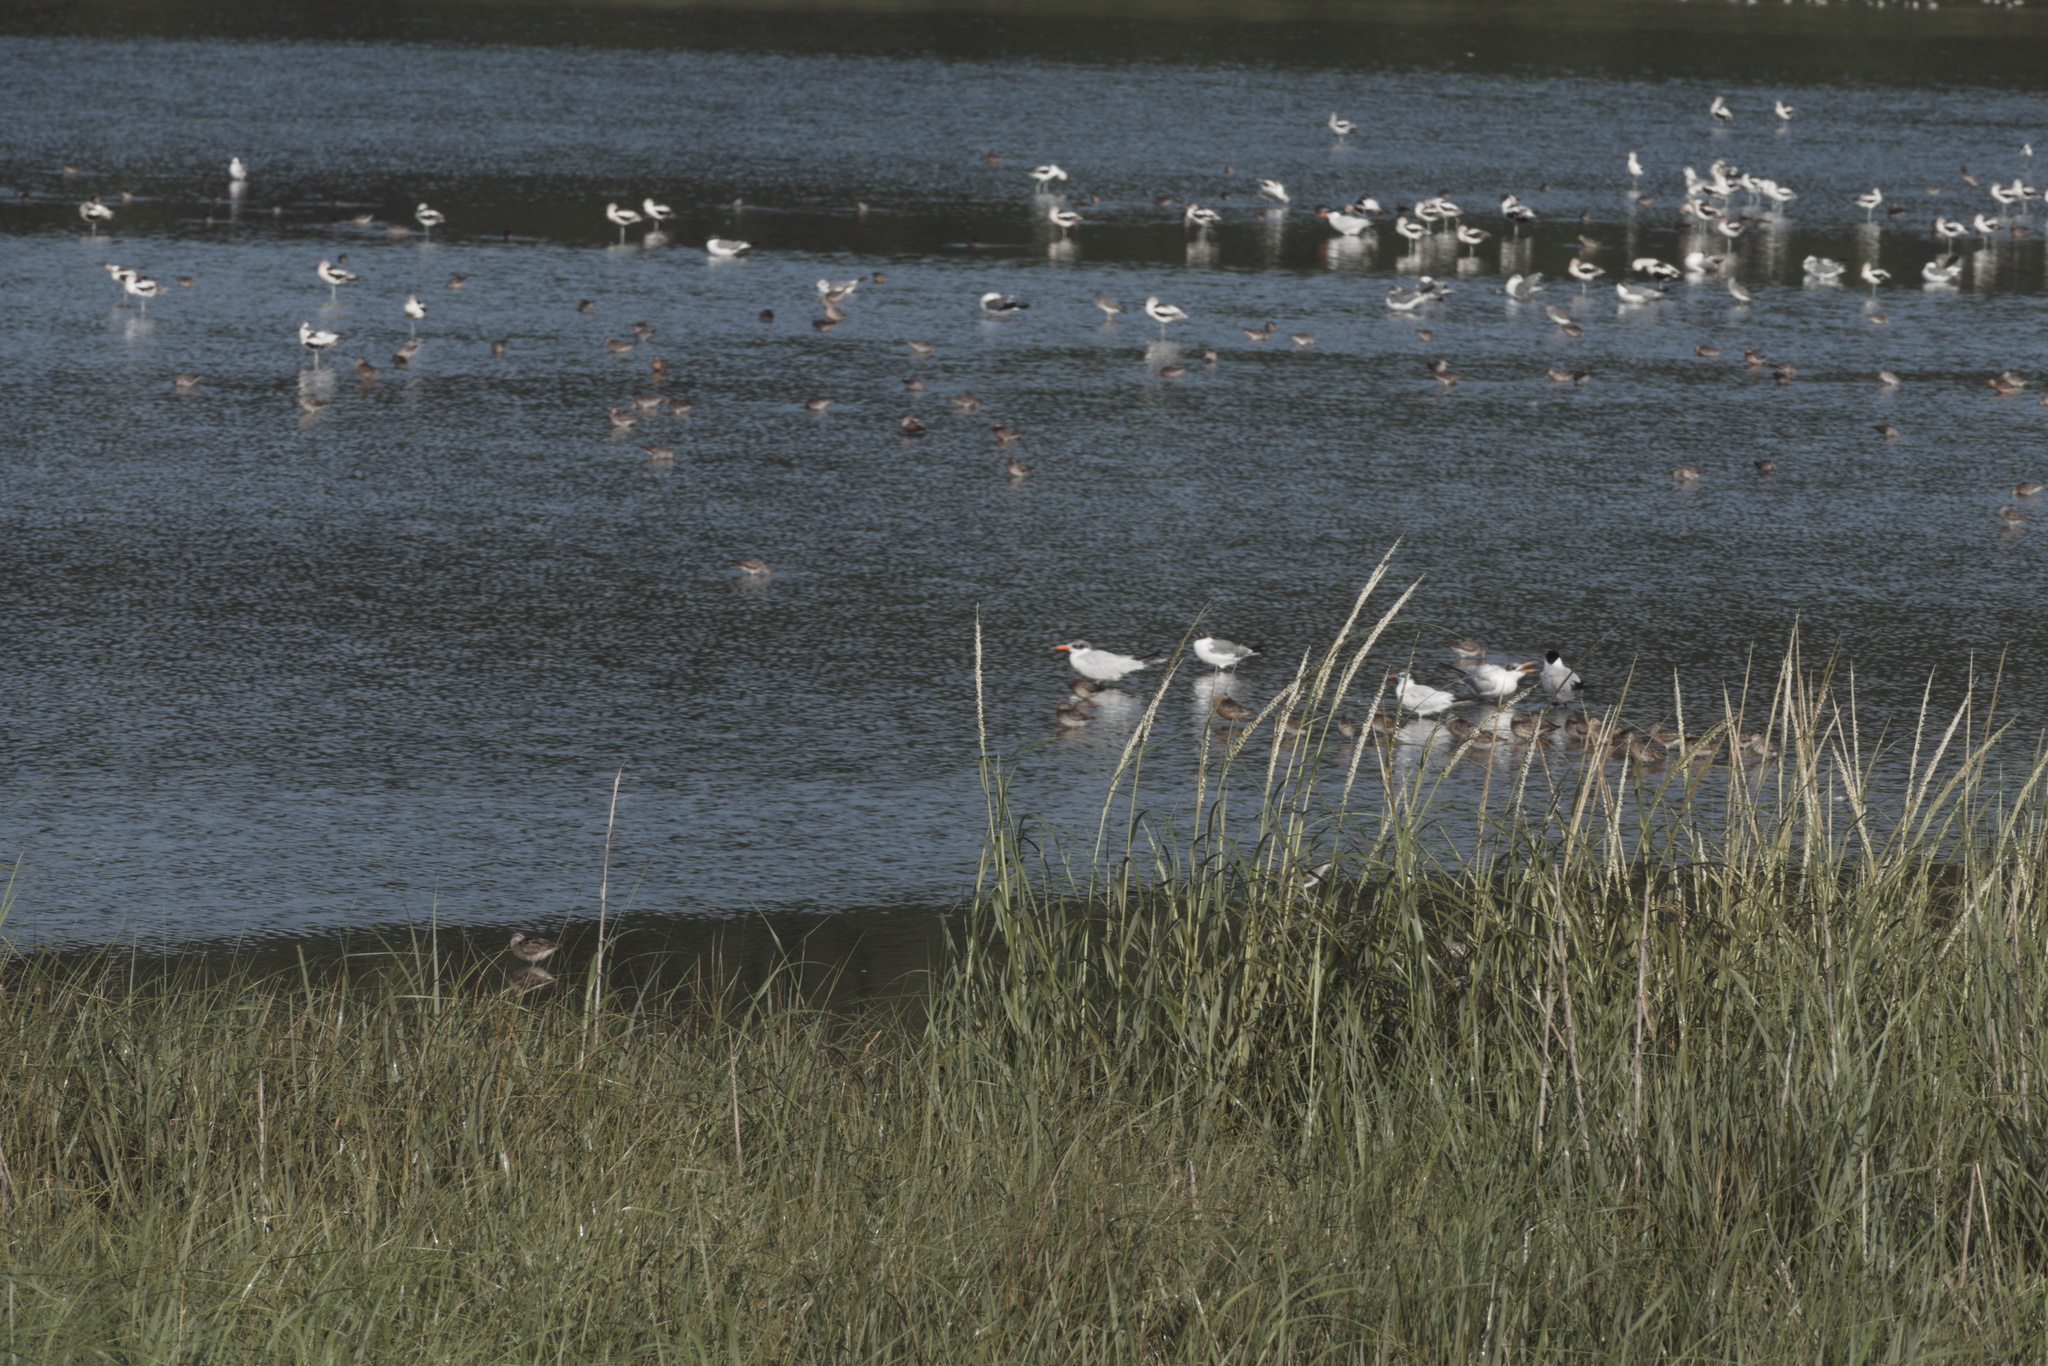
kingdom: Animalia
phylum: Chordata
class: Aves
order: Charadriiformes
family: Laridae
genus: Hydroprogne
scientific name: Hydroprogne caspia
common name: Caspian tern
